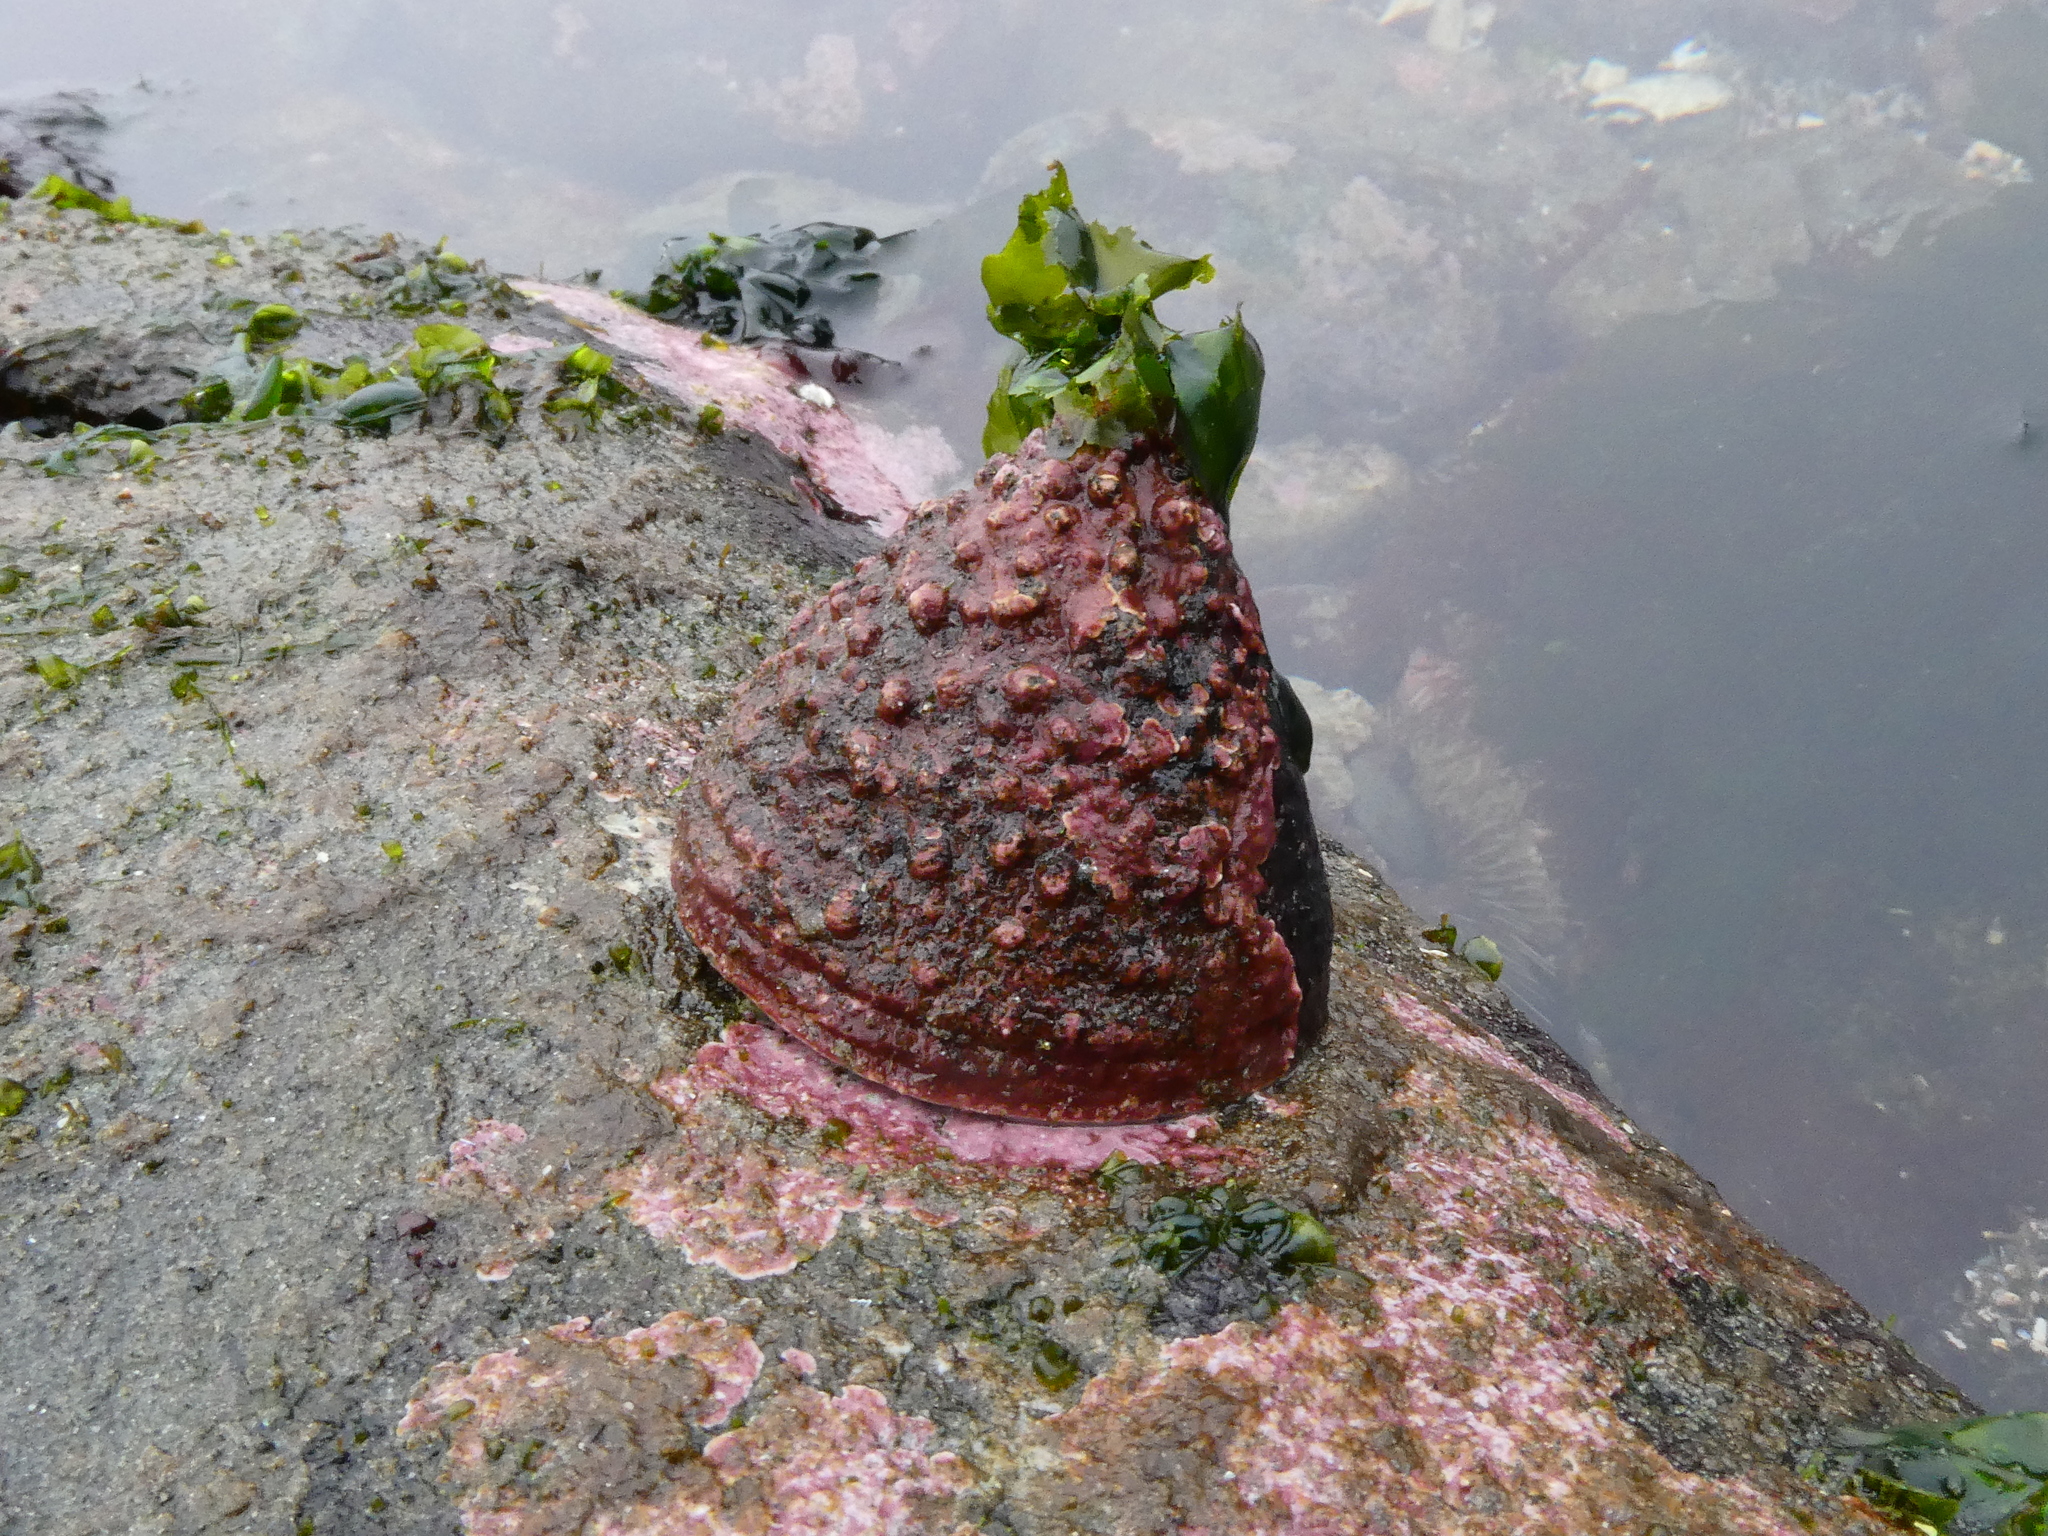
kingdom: Animalia
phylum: Mollusca
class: Gastropoda
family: Acmaeidae
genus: Acmaea
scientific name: Acmaea mitra
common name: Pacific white cap limpet
